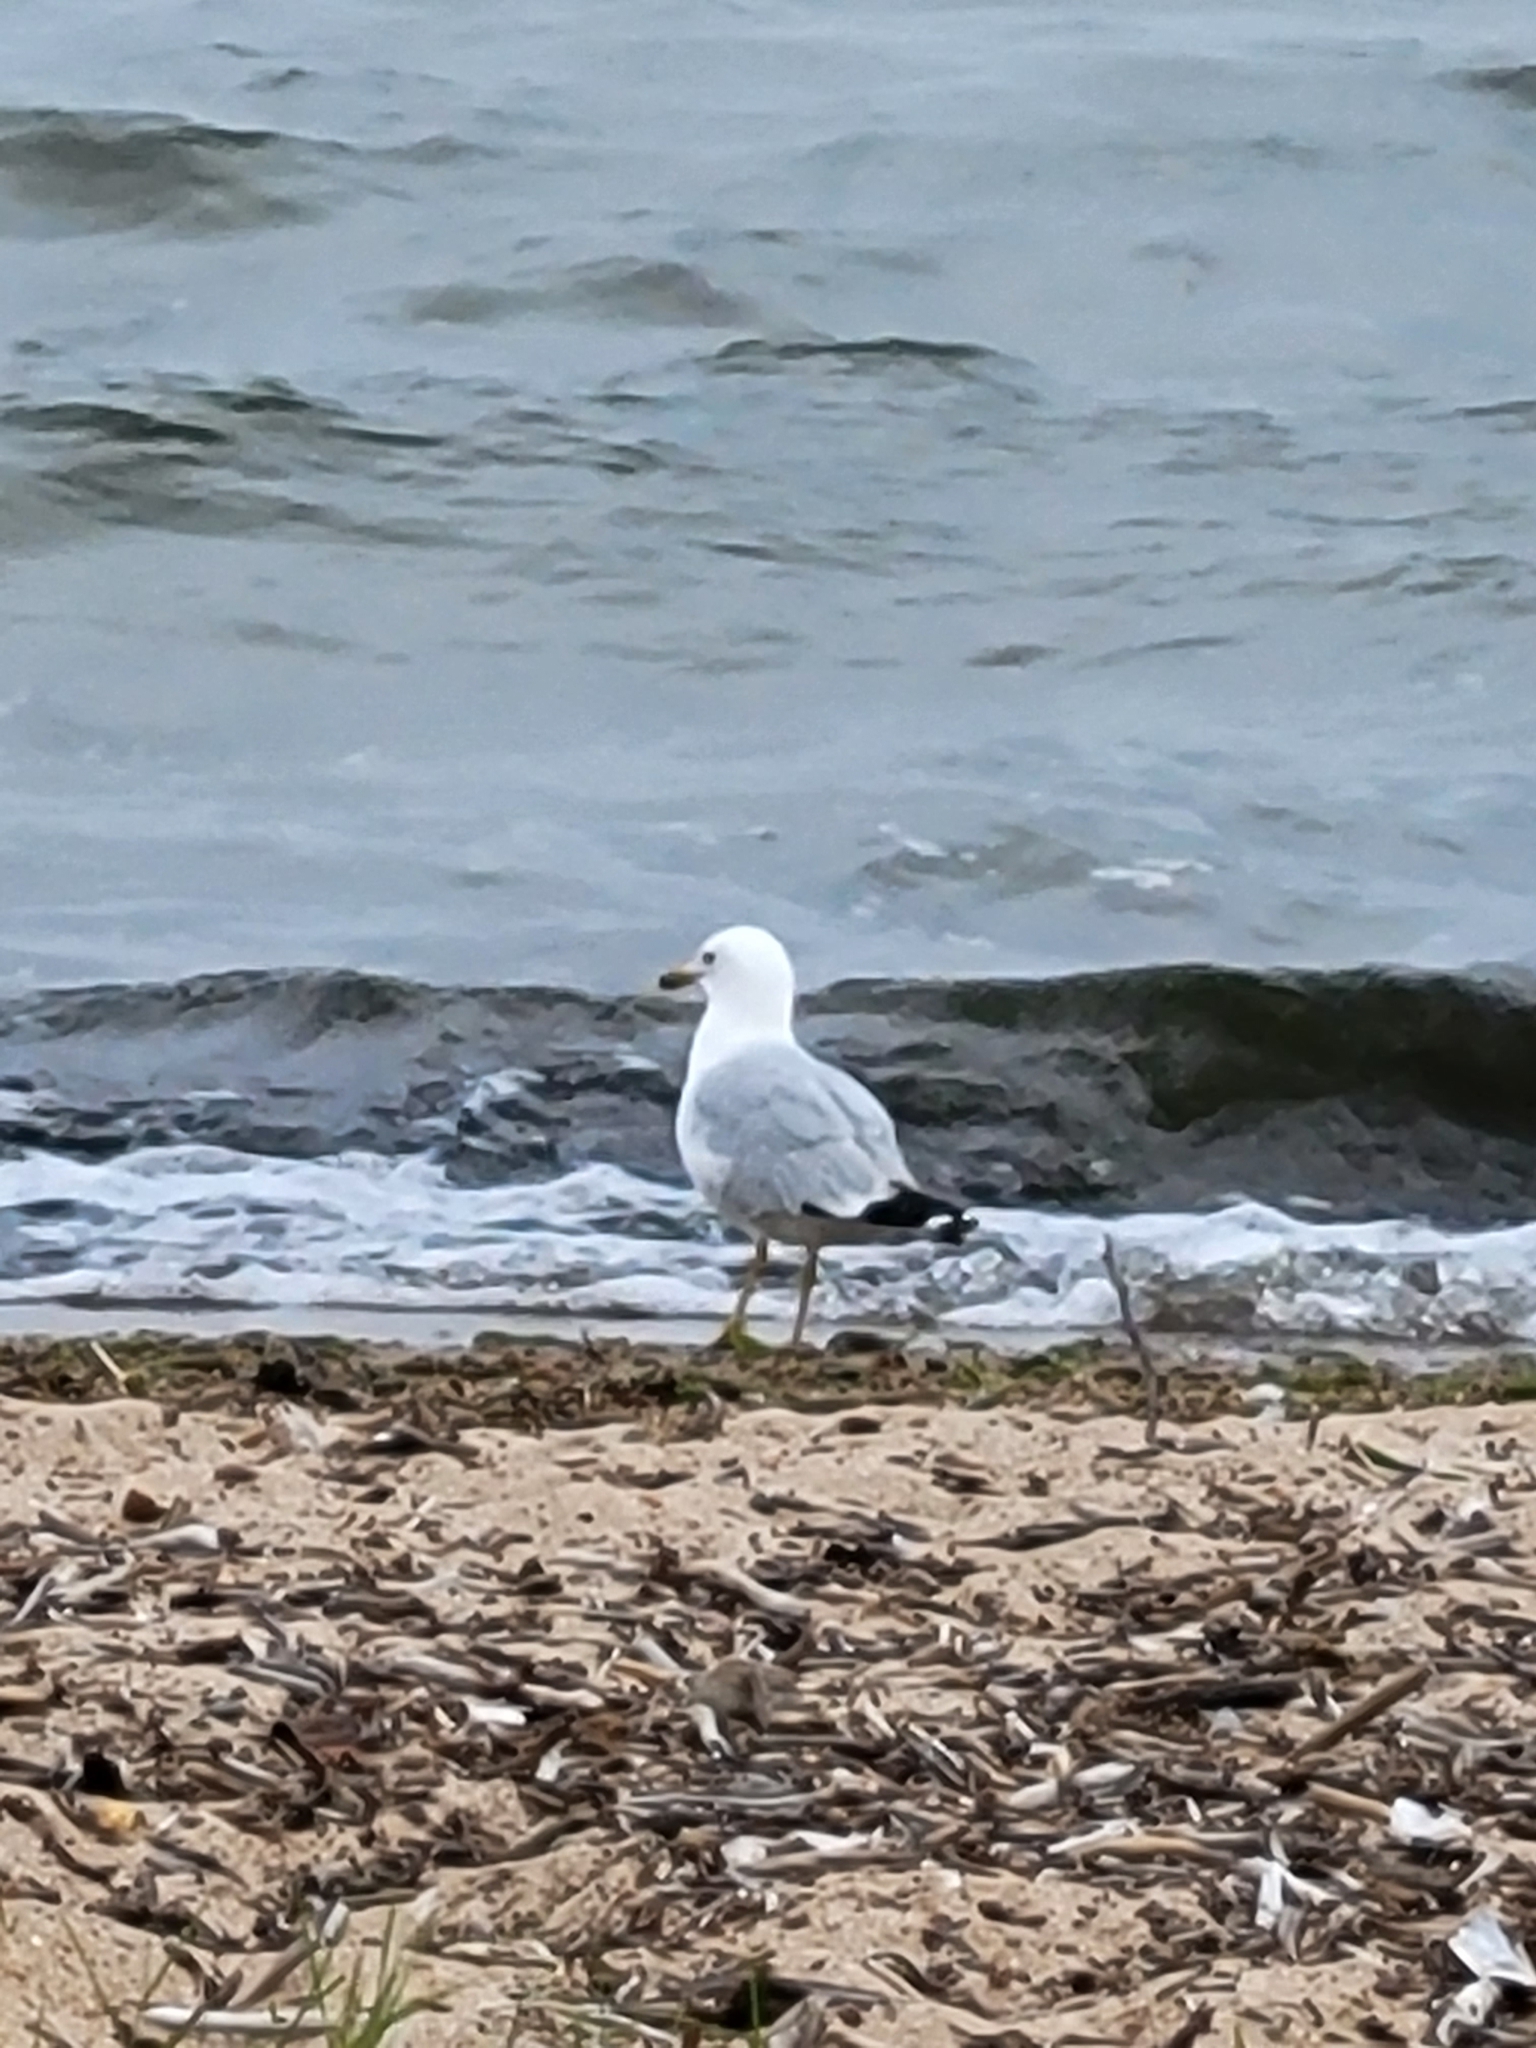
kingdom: Animalia
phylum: Chordata
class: Aves
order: Charadriiformes
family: Laridae
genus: Larus
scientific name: Larus delawarensis
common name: Ring-billed gull
